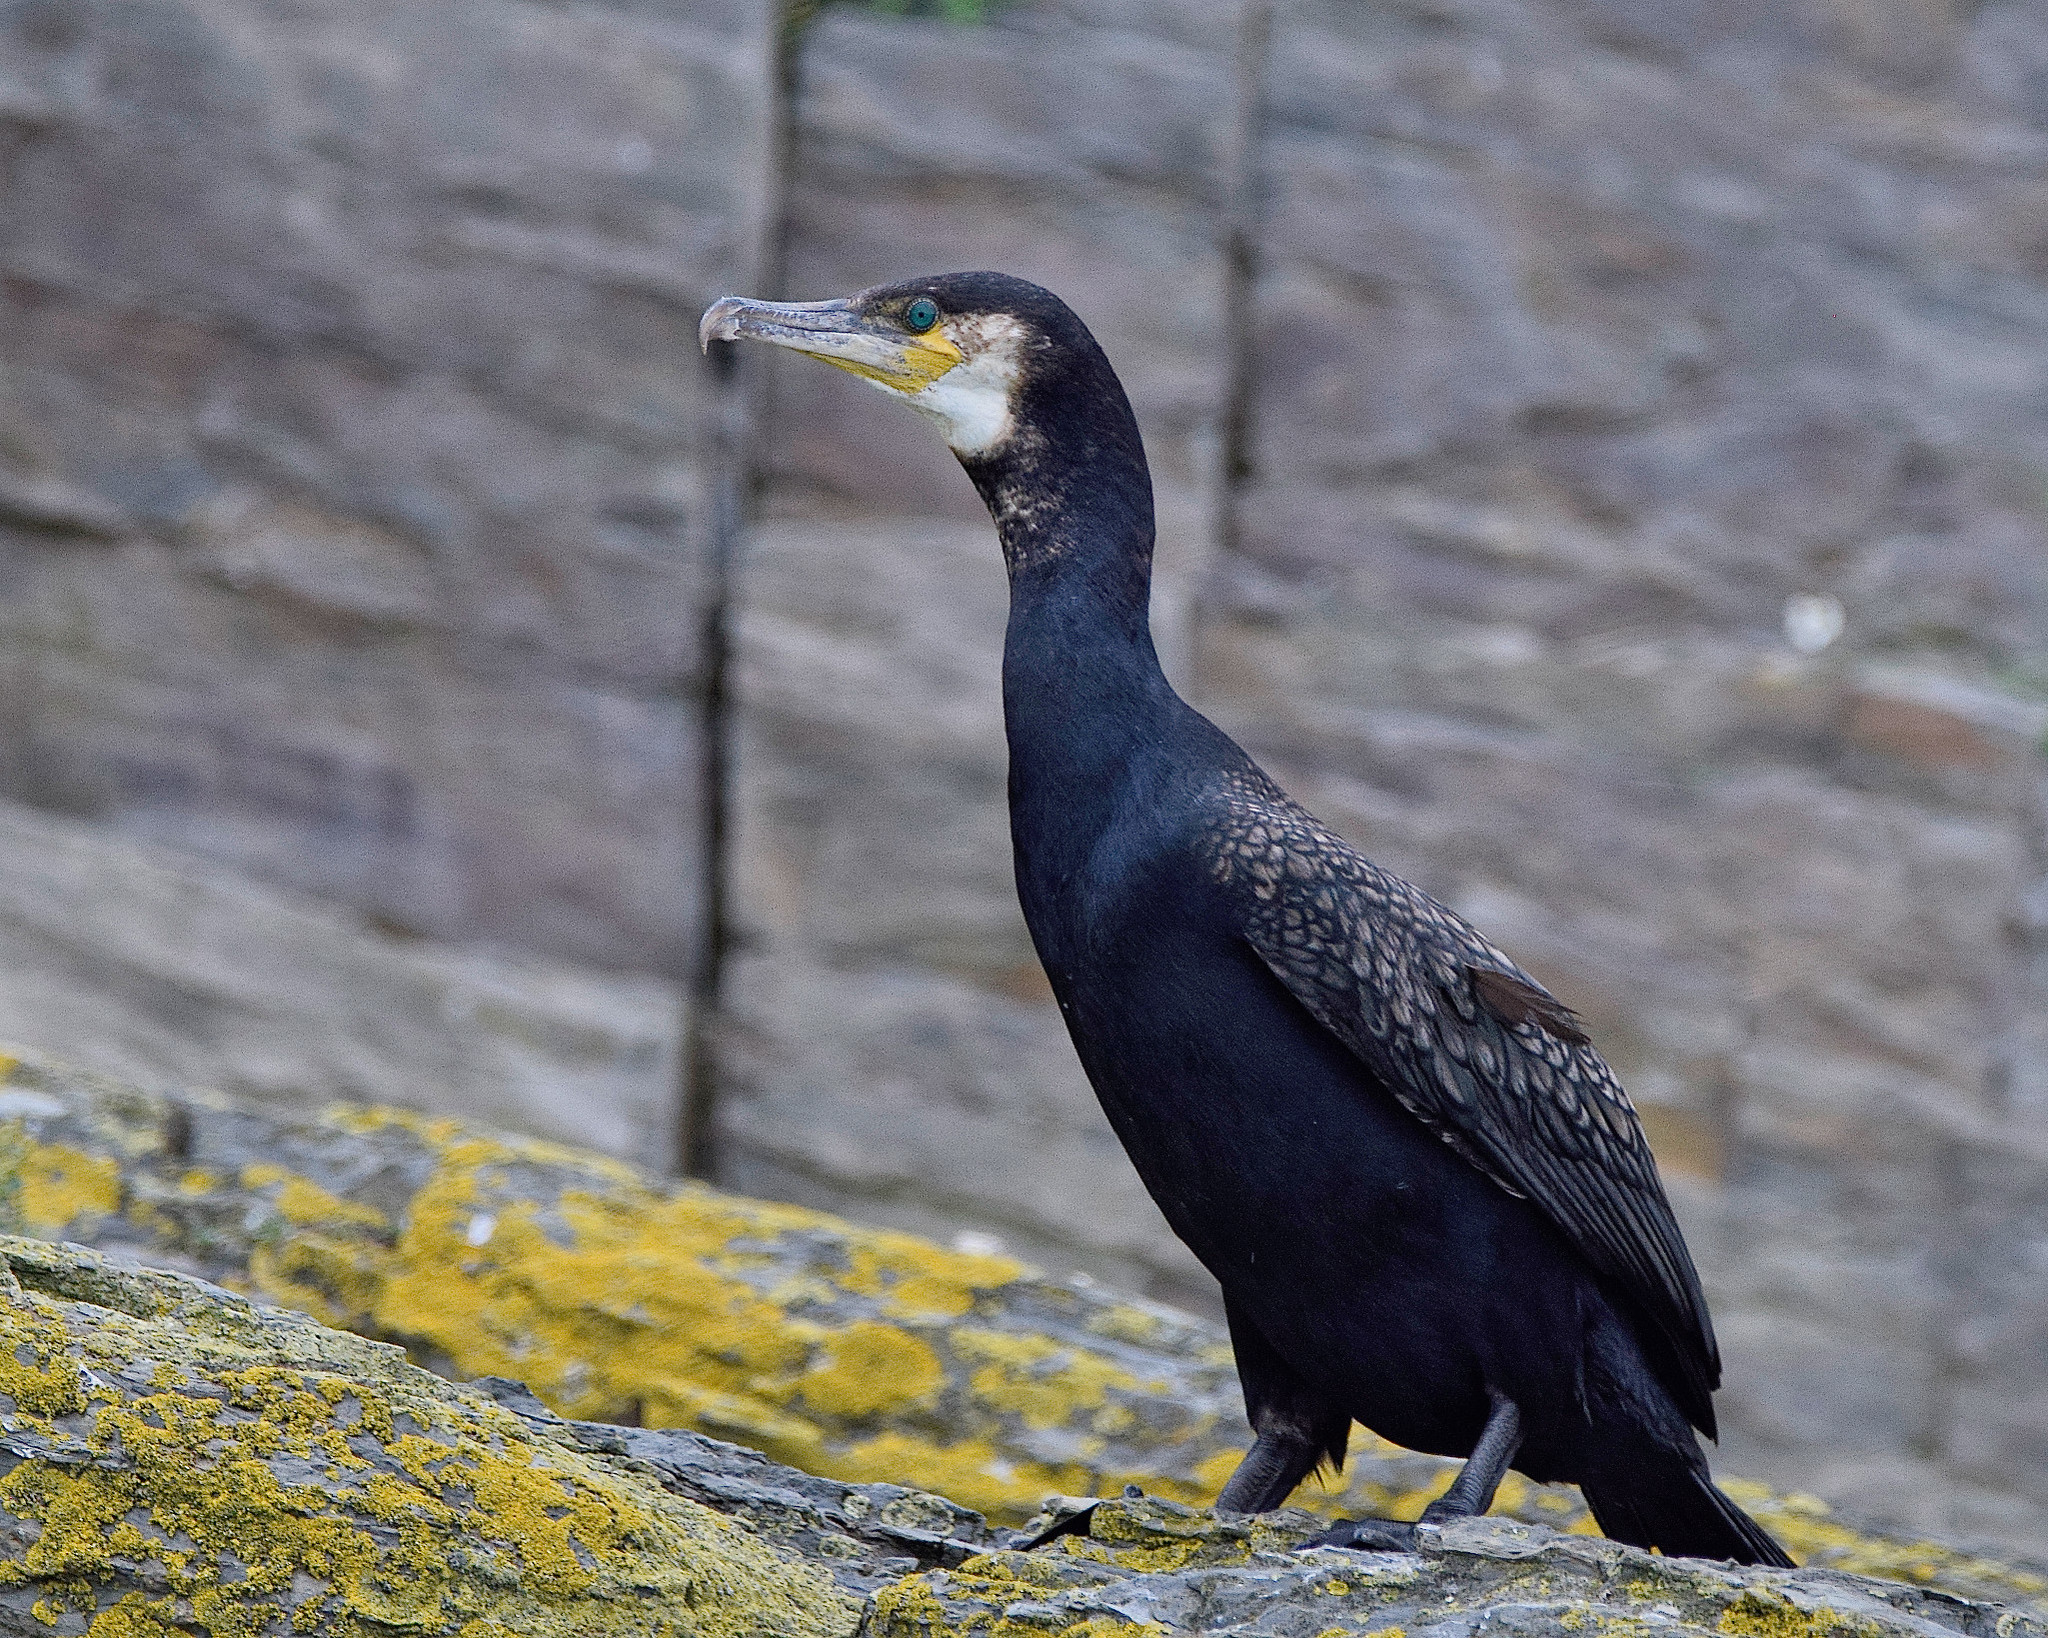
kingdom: Animalia
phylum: Chordata
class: Aves
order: Suliformes
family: Phalacrocoracidae
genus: Phalacrocorax
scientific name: Phalacrocorax carbo
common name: Great cormorant
